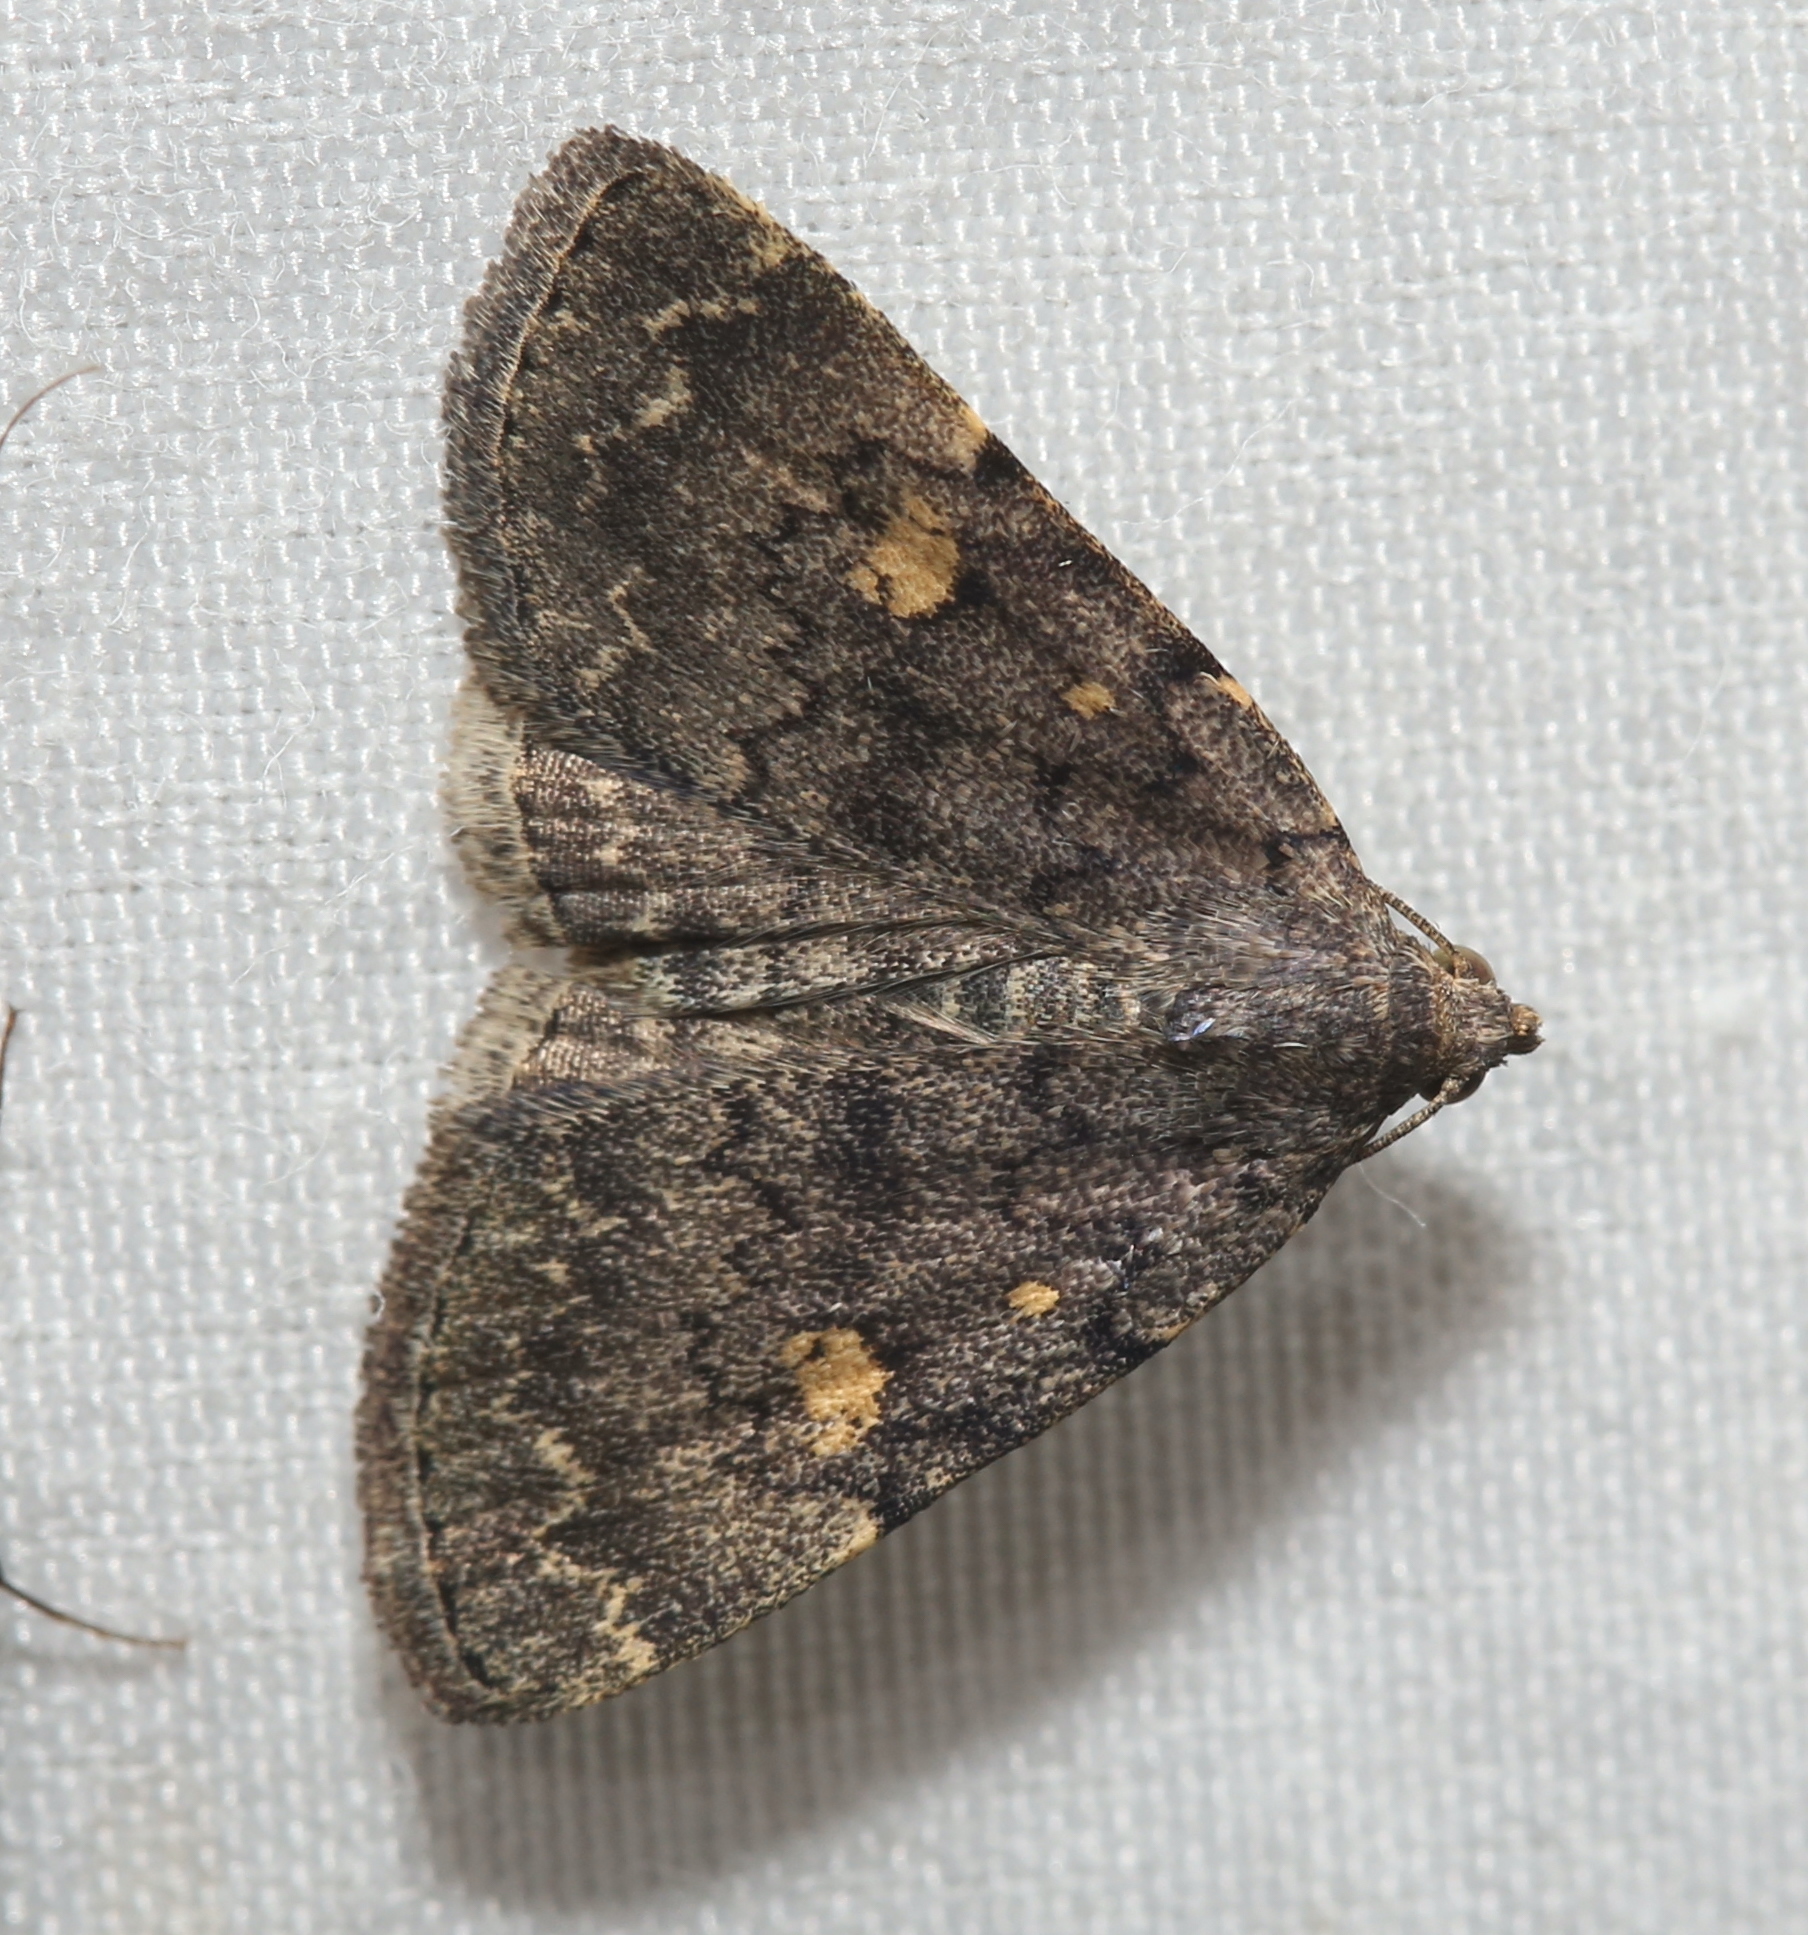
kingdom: Animalia
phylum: Arthropoda
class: Insecta
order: Lepidoptera
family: Erebidae
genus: Idia
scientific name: Idia aemula
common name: Common idia moth
